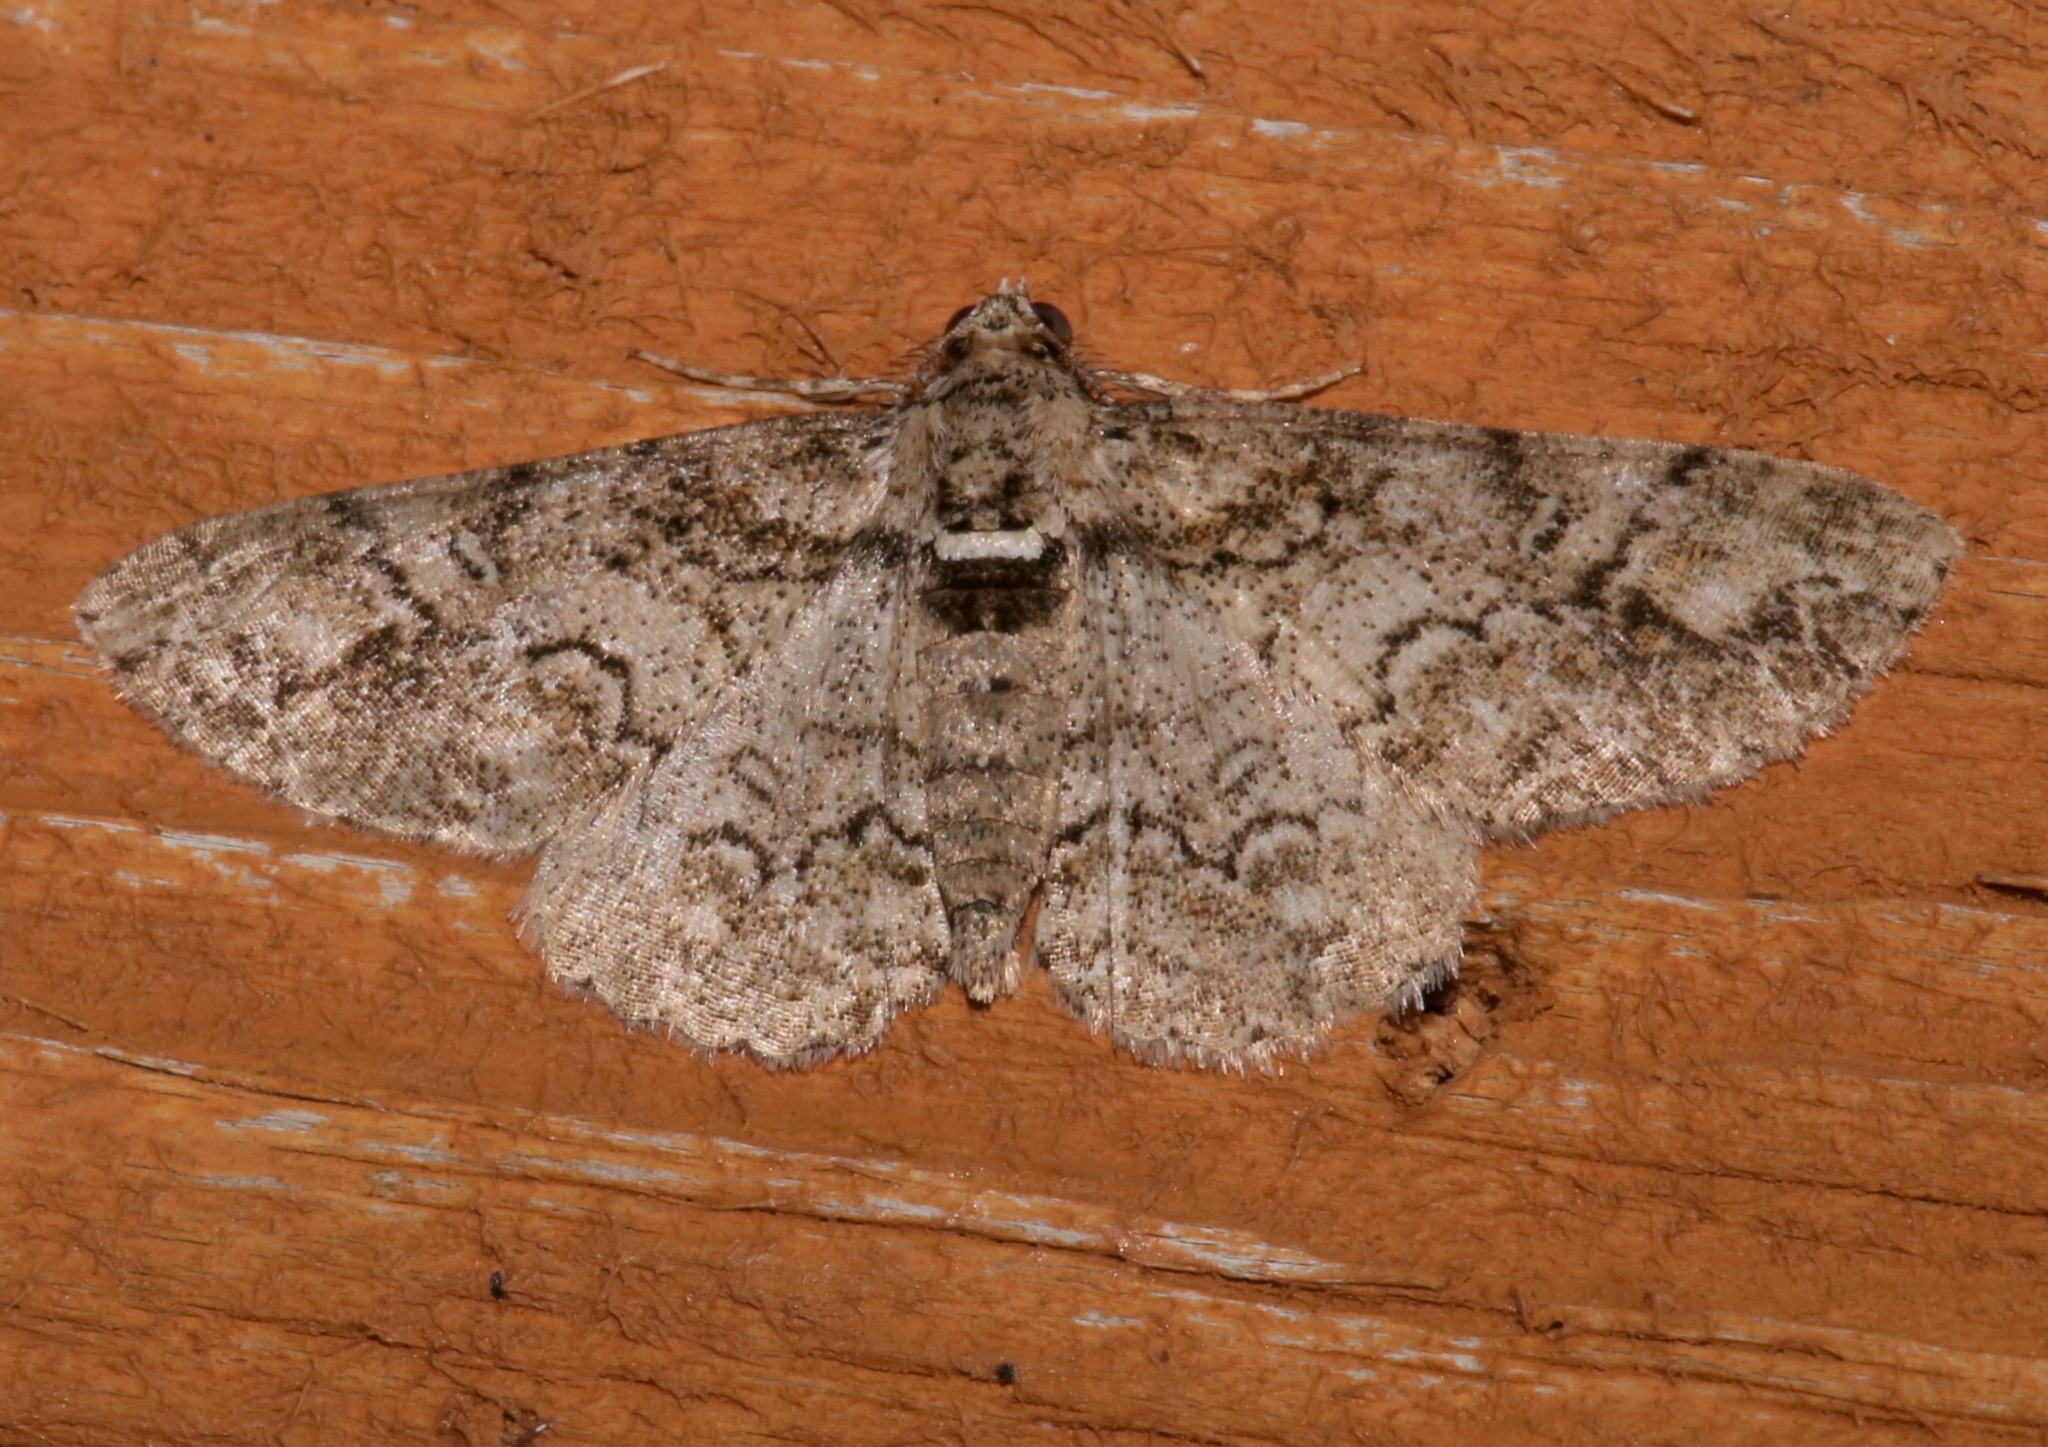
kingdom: Animalia
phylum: Arthropoda
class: Insecta
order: Lepidoptera
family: Geometridae
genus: Cleora
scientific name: Cleora sublunaria
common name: Double-lined gray
